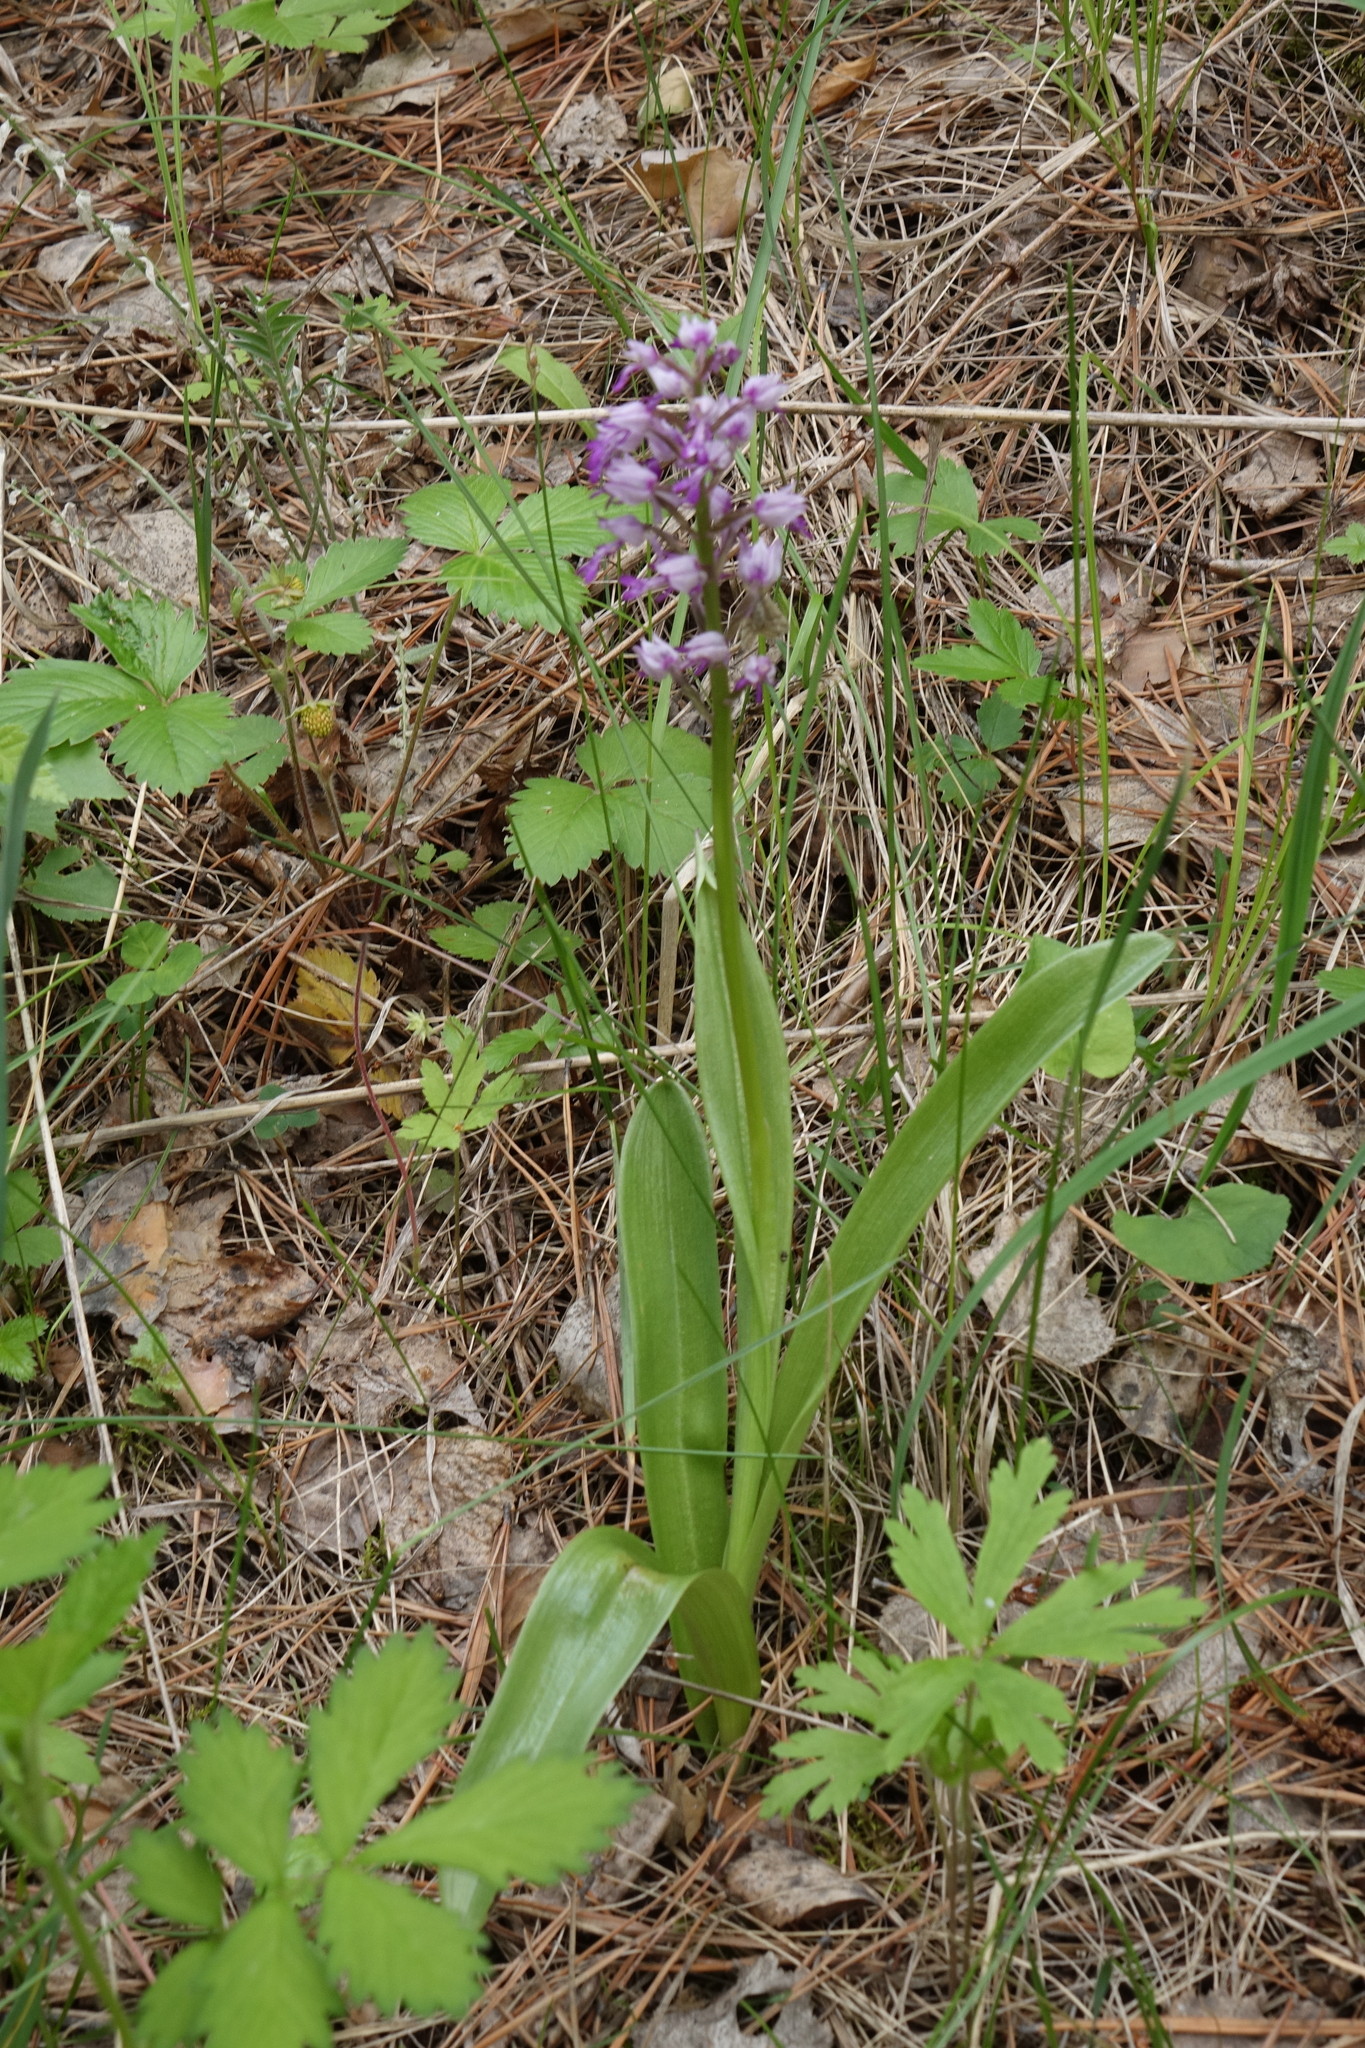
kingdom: Plantae
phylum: Tracheophyta
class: Liliopsida
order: Asparagales
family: Orchidaceae
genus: Orchis
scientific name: Orchis militaris
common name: Military orchid
